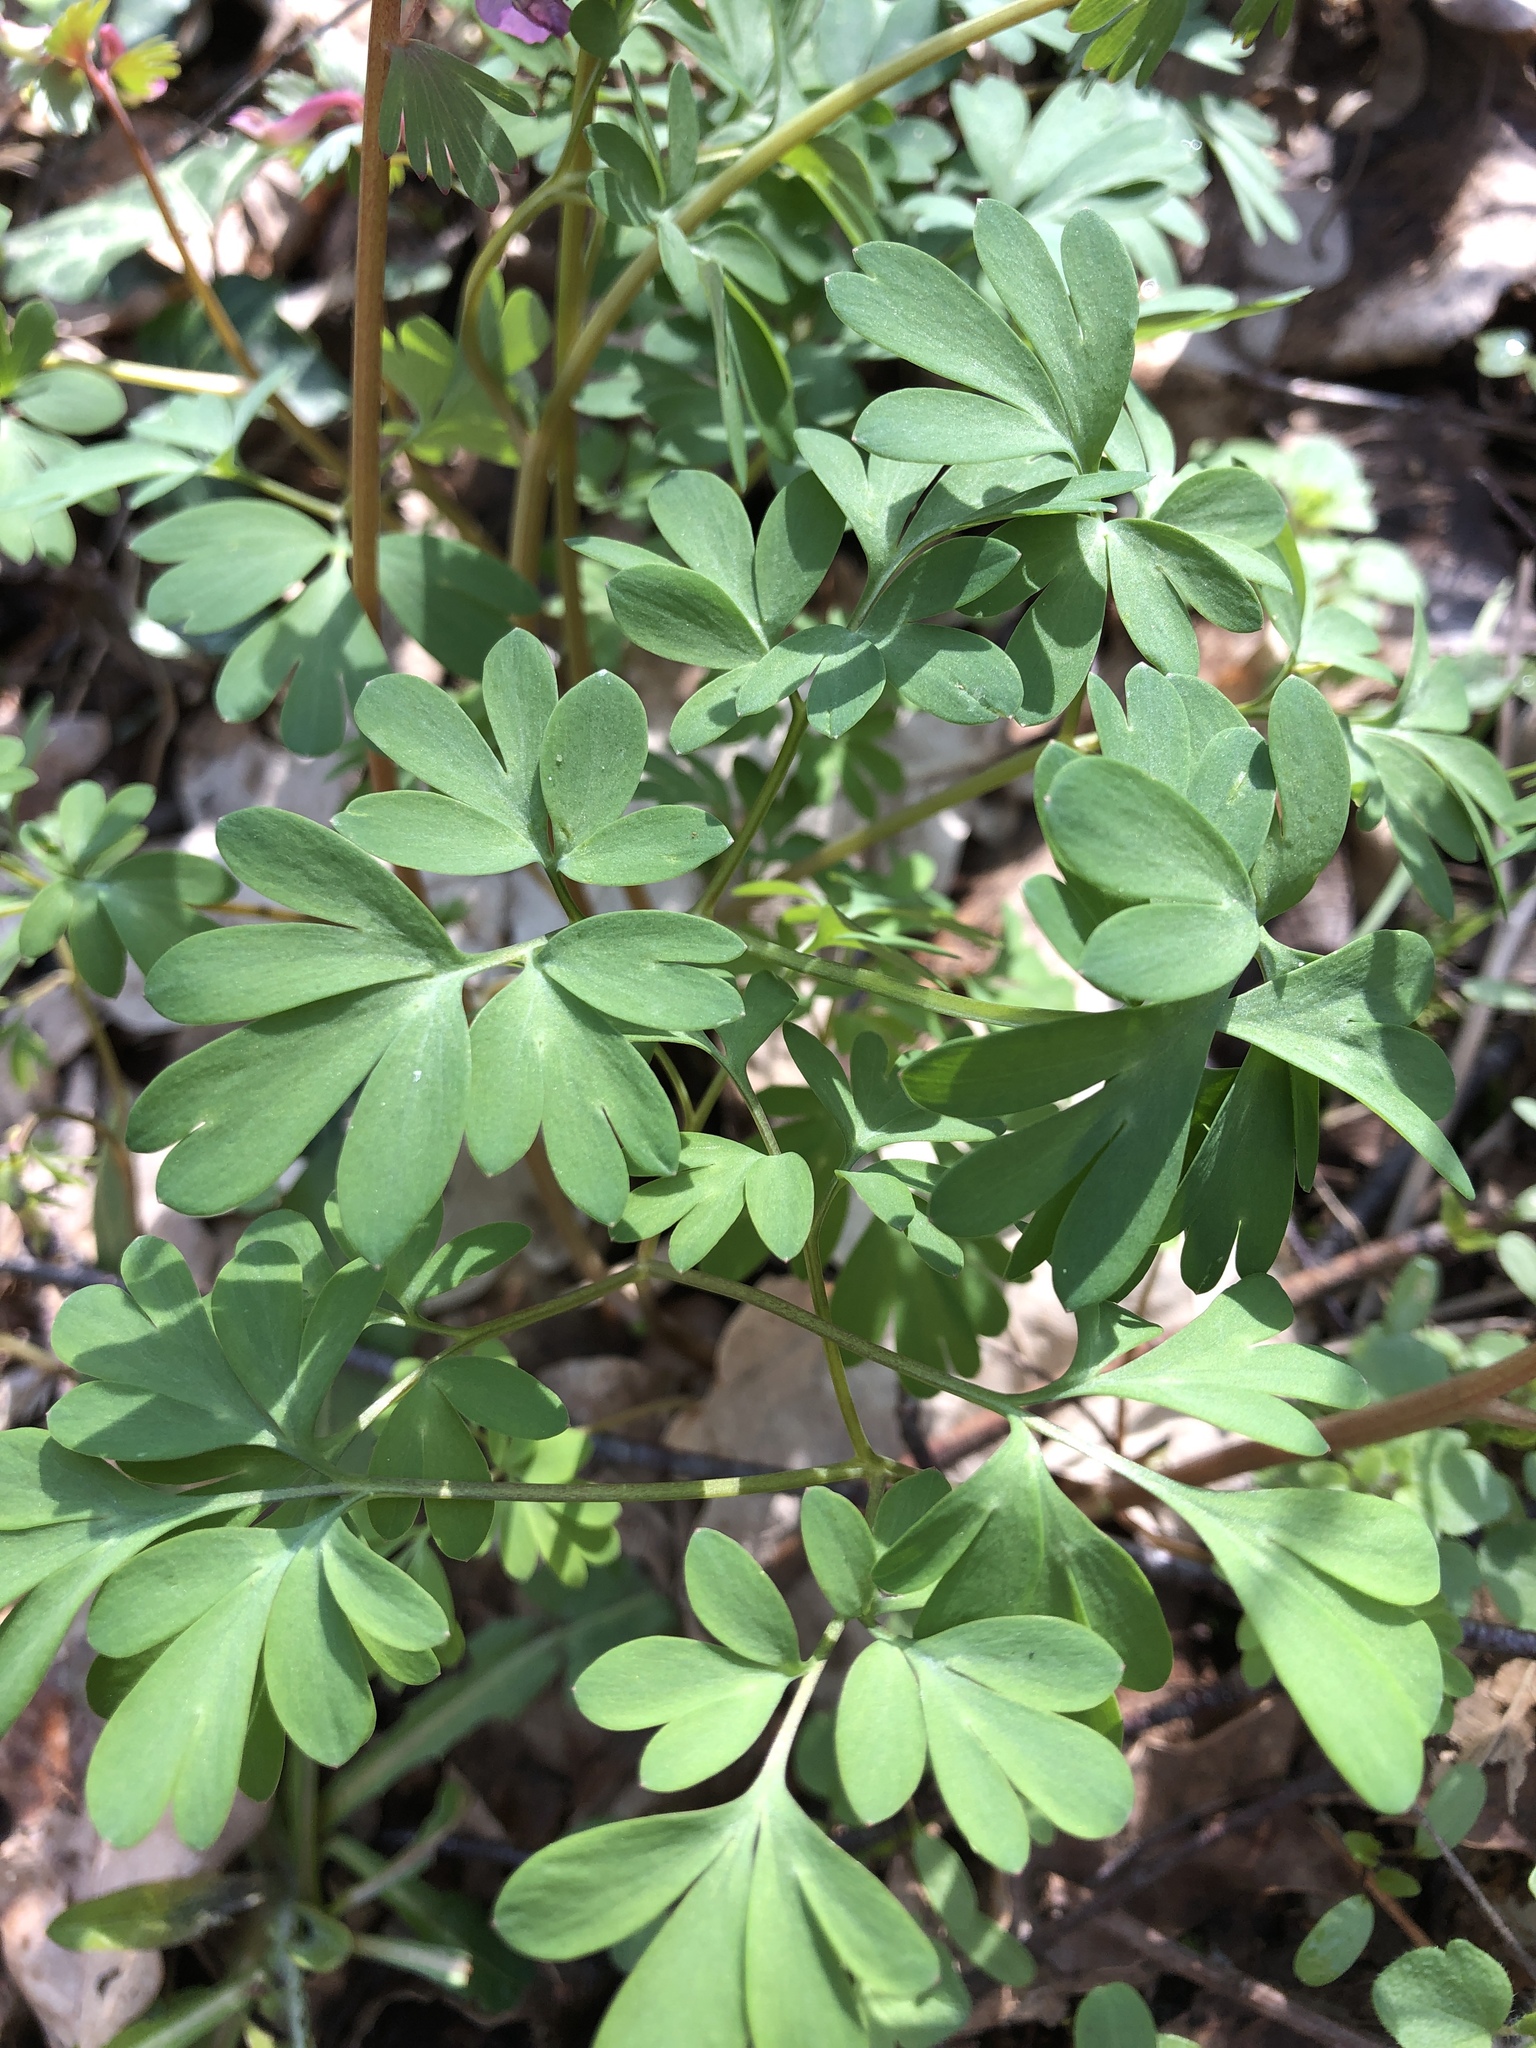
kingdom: Plantae
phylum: Tracheophyta
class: Magnoliopsida
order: Ranunculales
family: Papaveraceae
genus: Corydalis
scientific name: Corydalis solida
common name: Bird-in-a-bush
